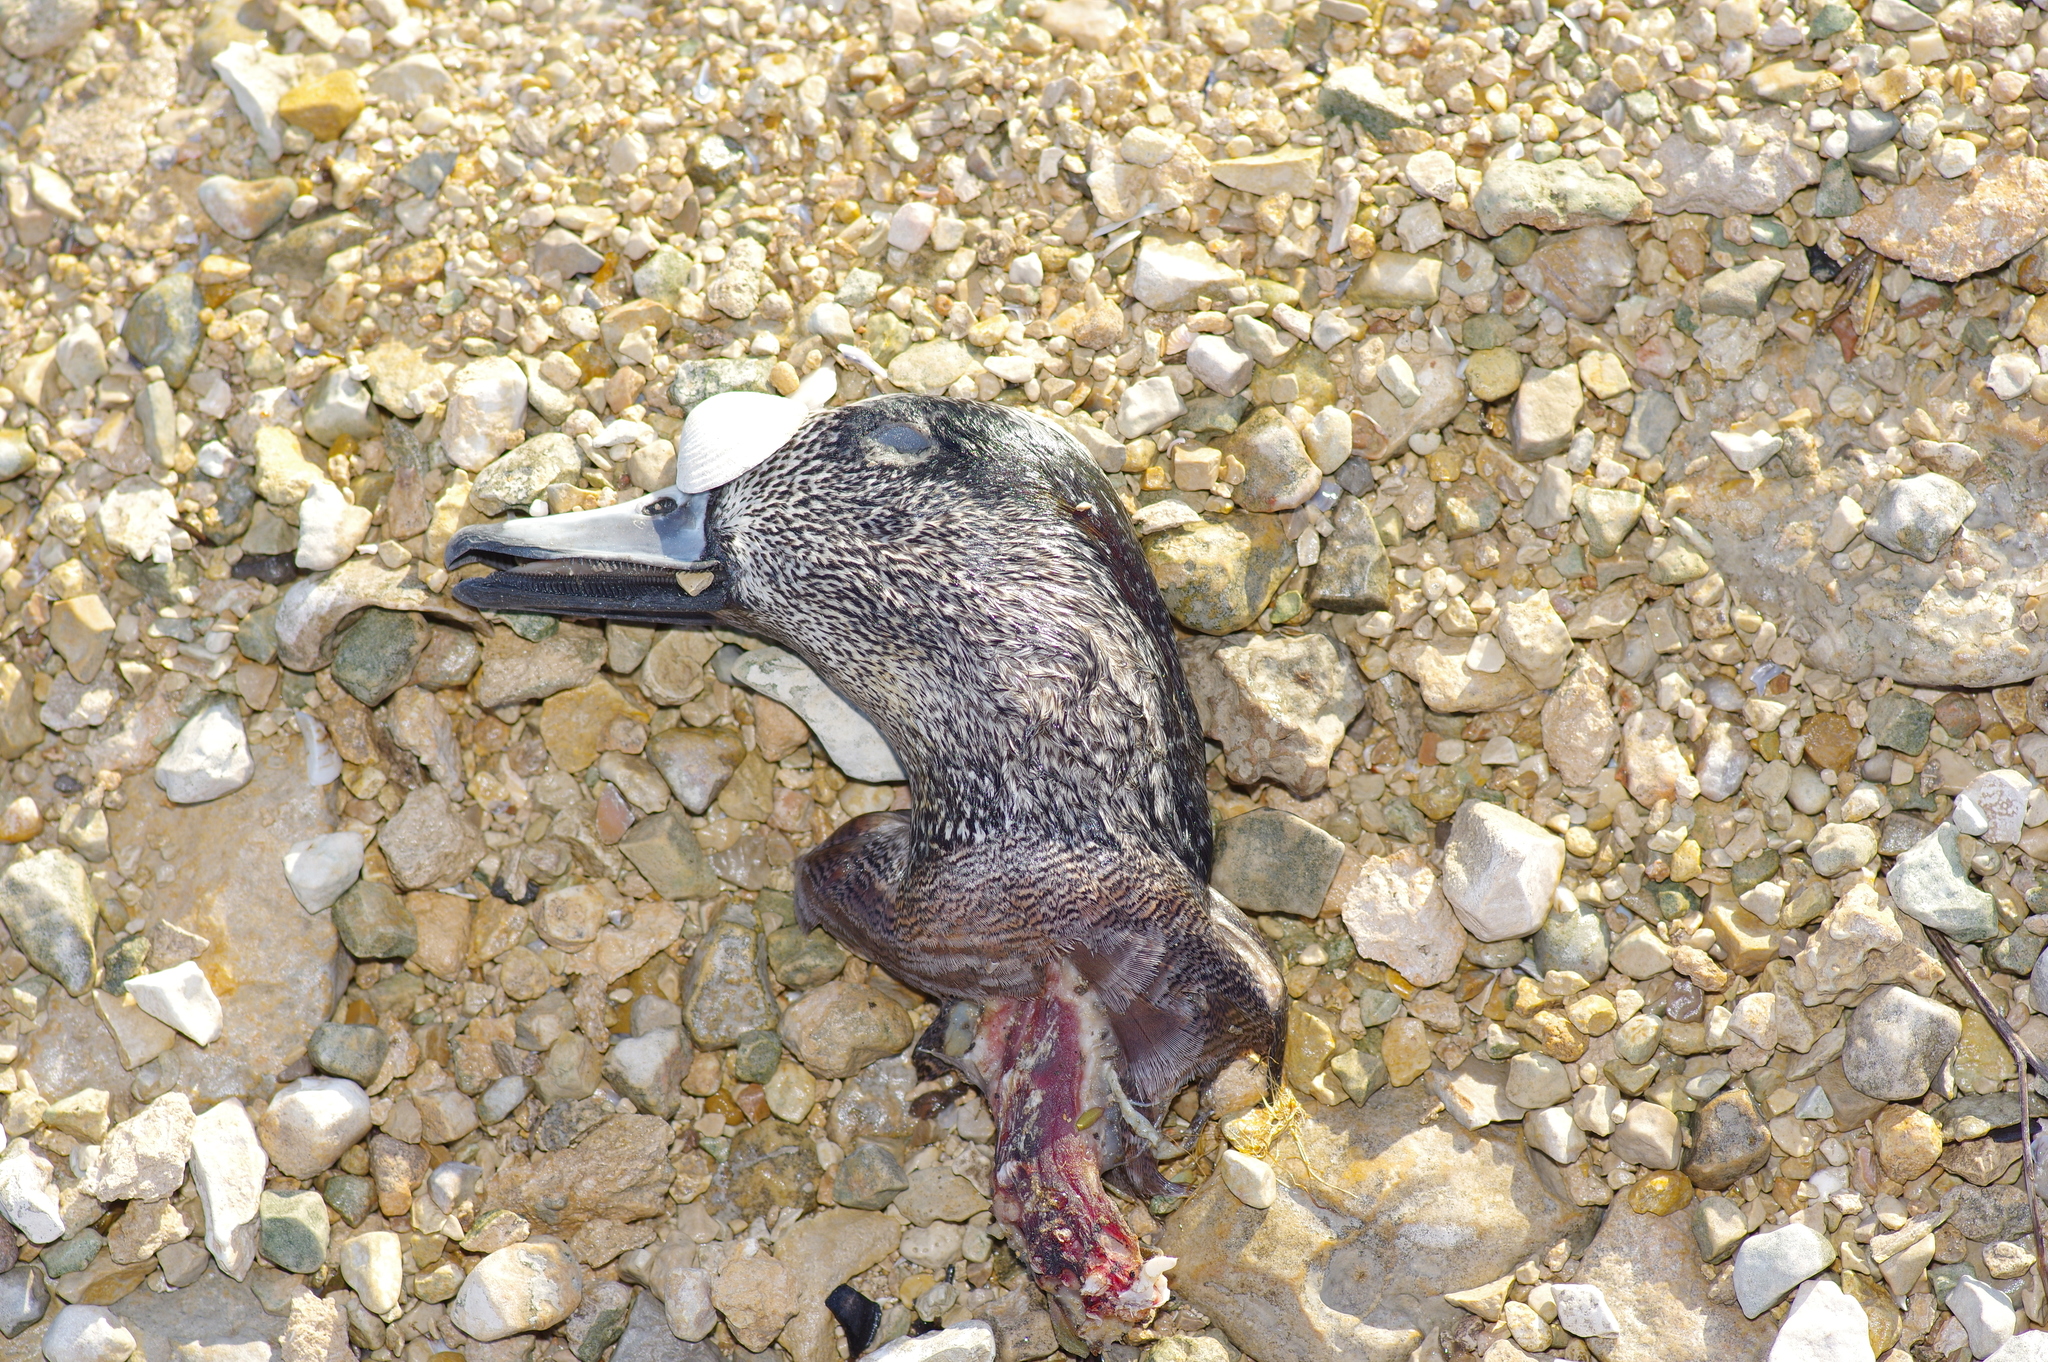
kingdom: Animalia
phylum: Chordata
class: Aves
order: Anseriformes
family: Anatidae
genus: Anas
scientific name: Anas crecca
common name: Eurasian teal
